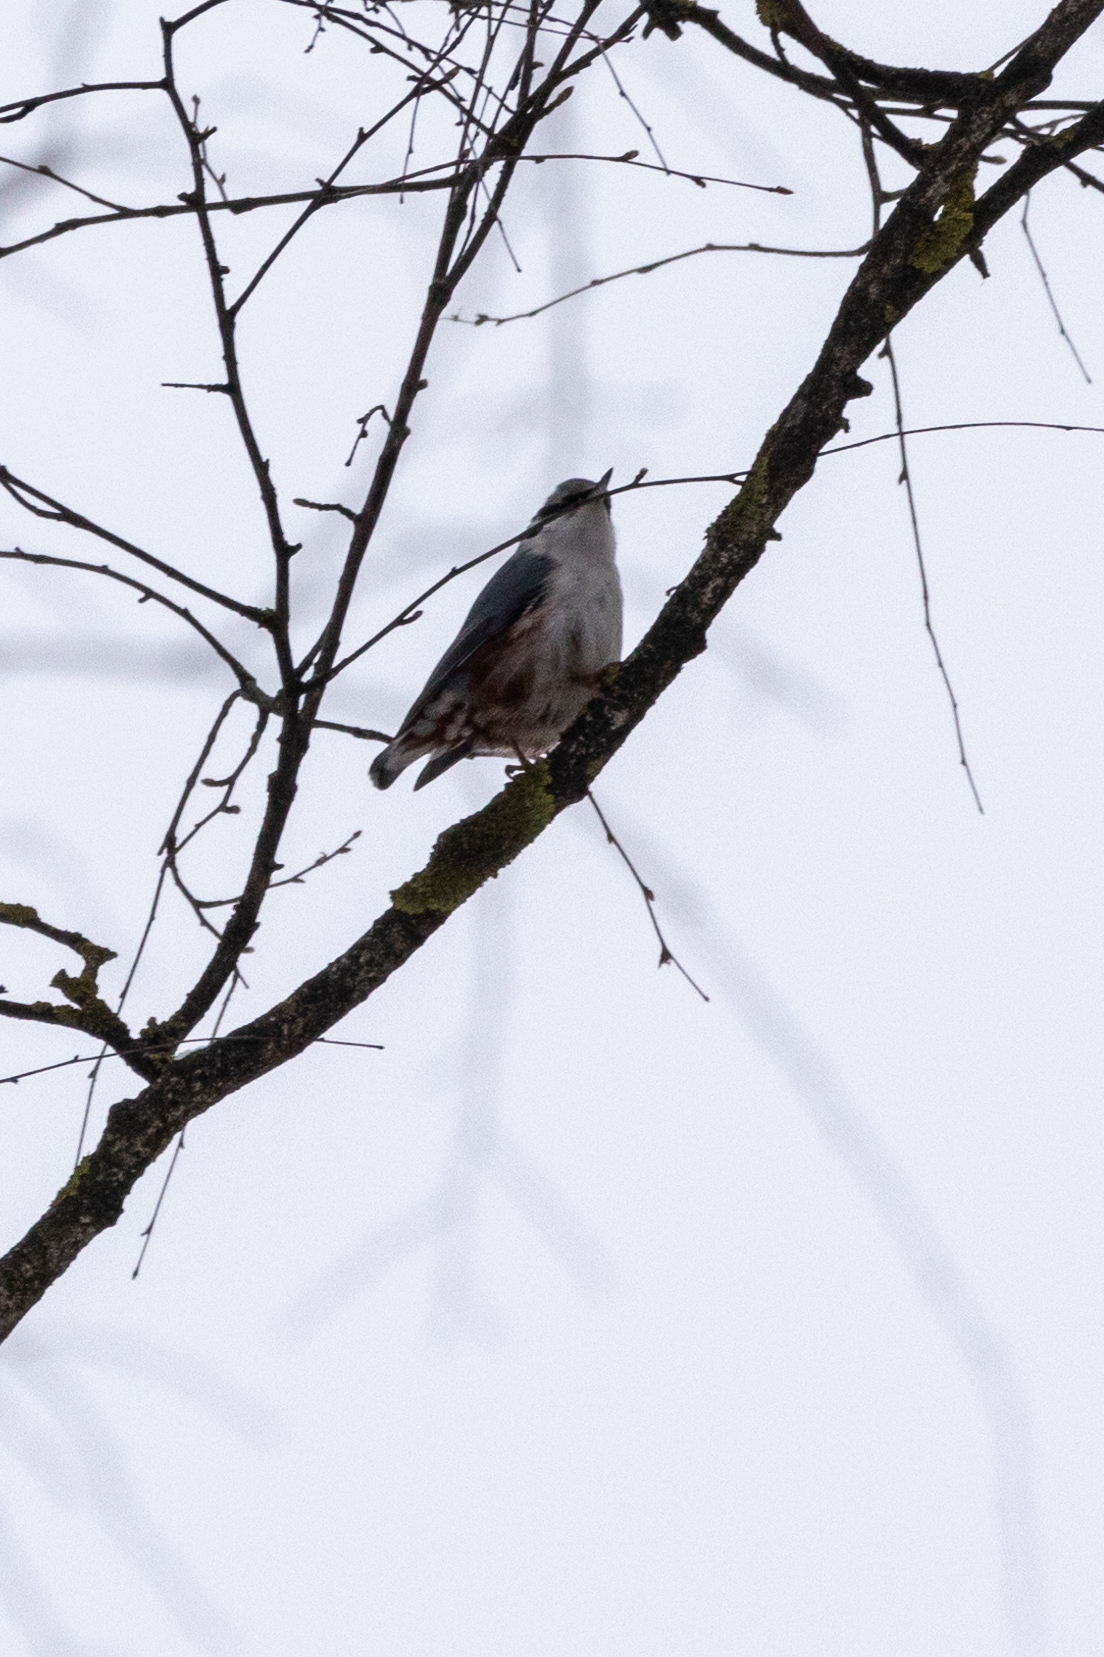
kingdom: Animalia
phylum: Chordata
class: Aves
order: Passeriformes
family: Sittidae
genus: Sitta
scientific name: Sitta europaea
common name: Eurasian nuthatch
